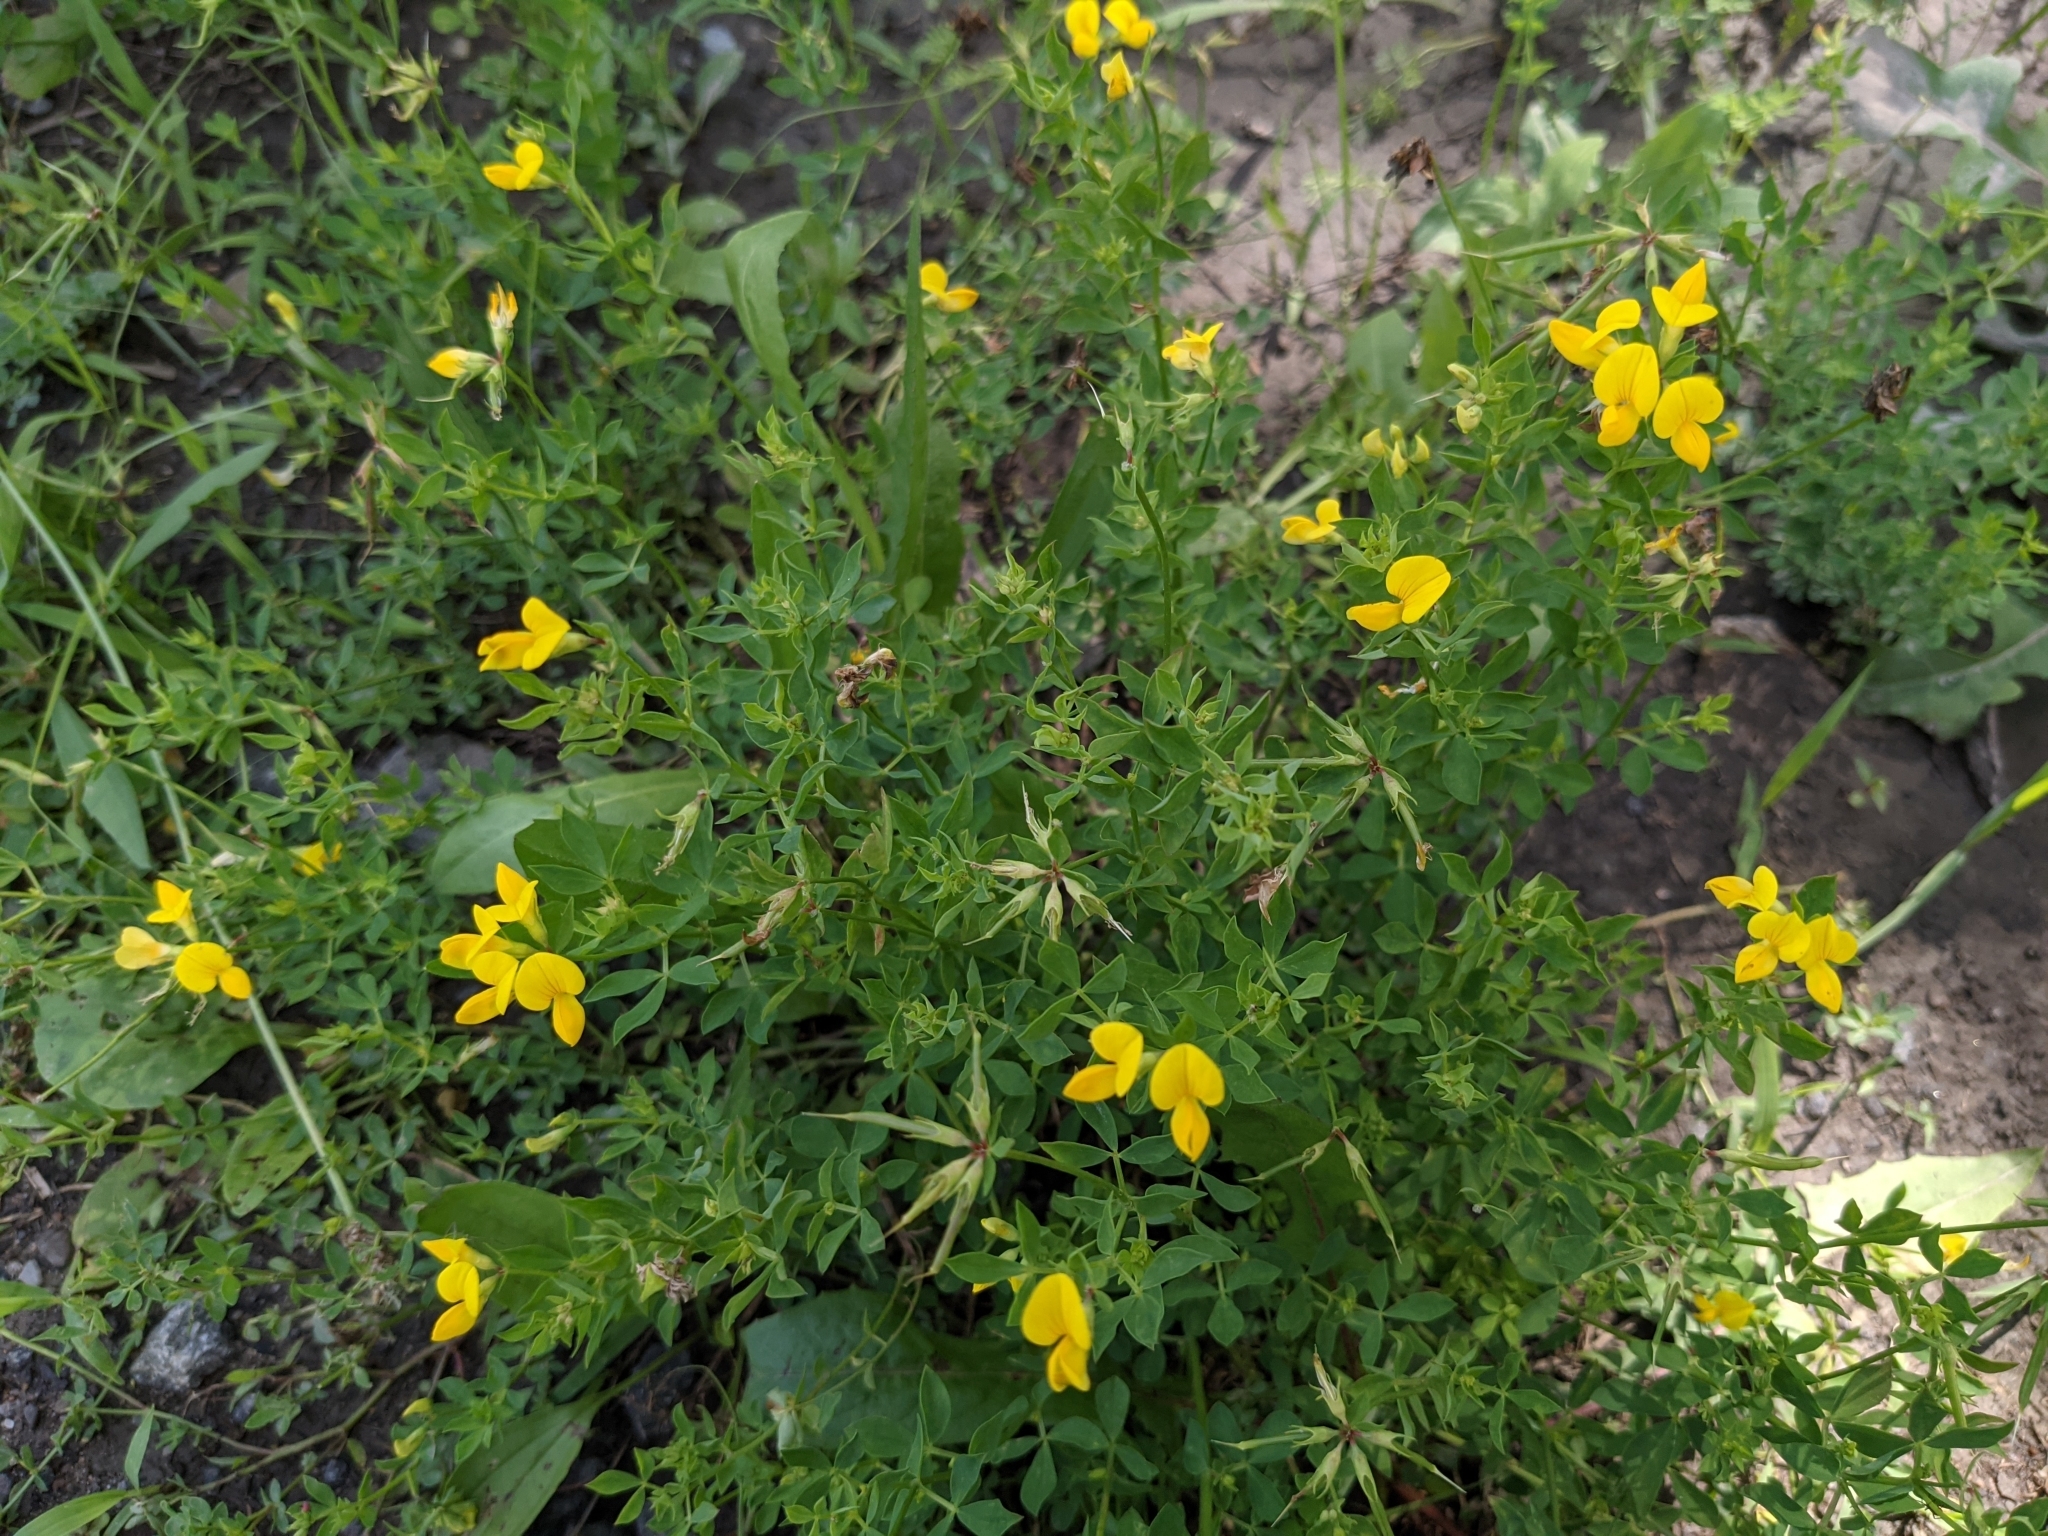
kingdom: Plantae
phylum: Tracheophyta
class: Magnoliopsida
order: Fabales
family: Fabaceae
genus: Lotus
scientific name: Lotus corniculatus
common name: Common bird's-foot-trefoil
